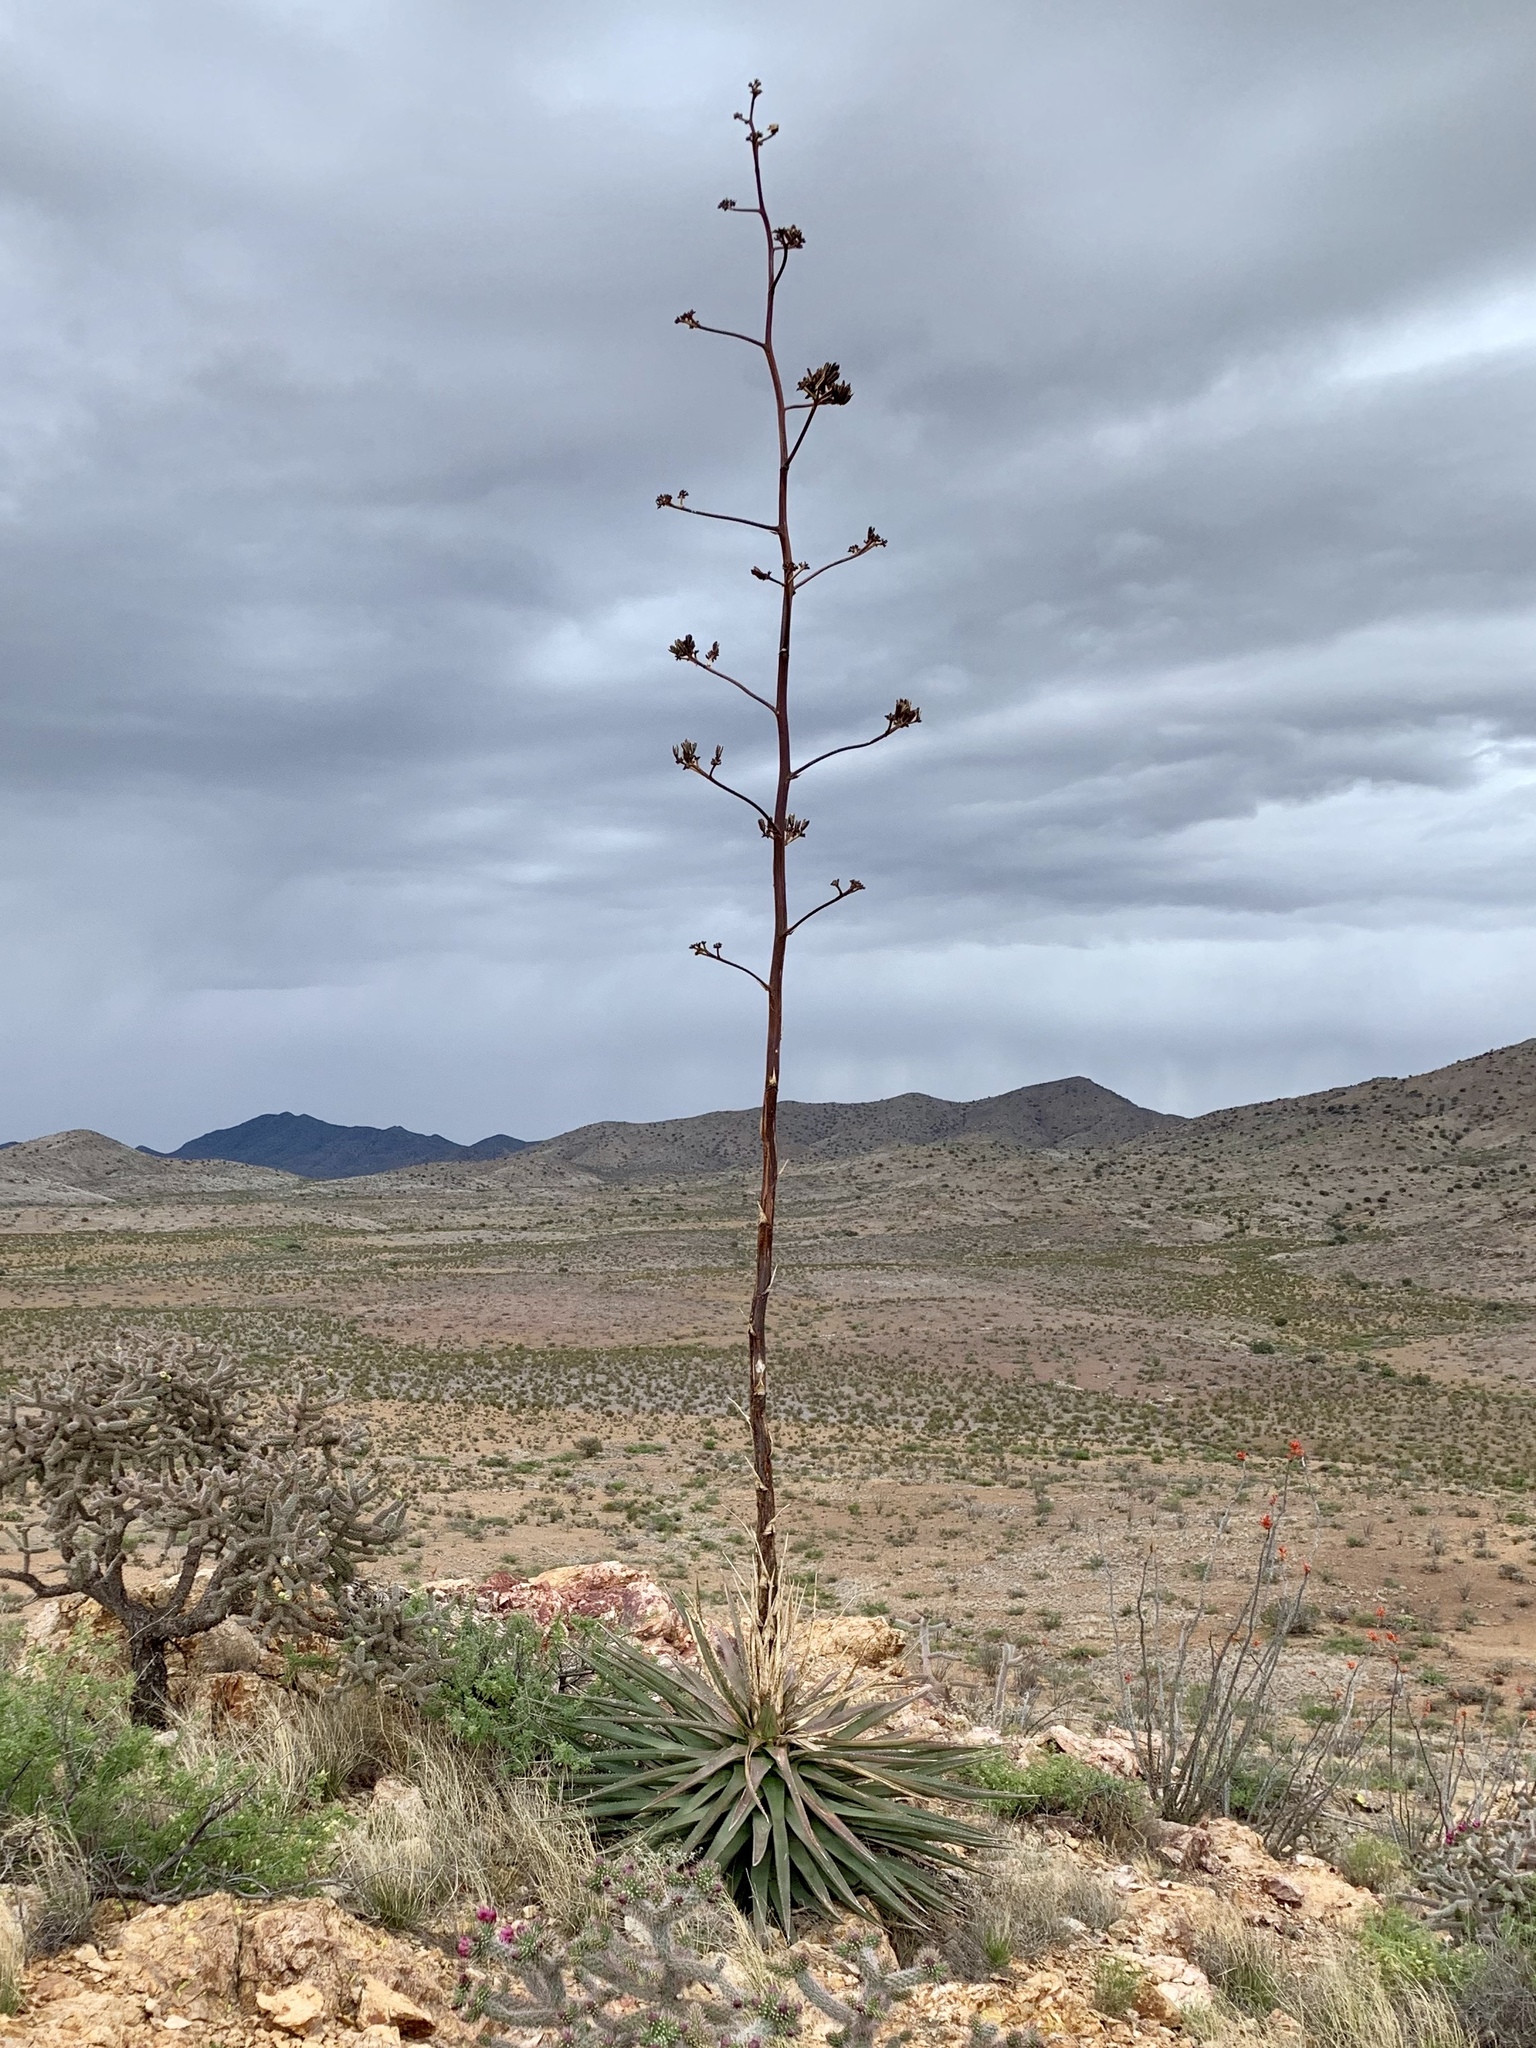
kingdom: Plantae
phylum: Tracheophyta
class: Liliopsida
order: Asparagales
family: Asparagaceae
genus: Agave
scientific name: Agave palmeri
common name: Palmer agave
